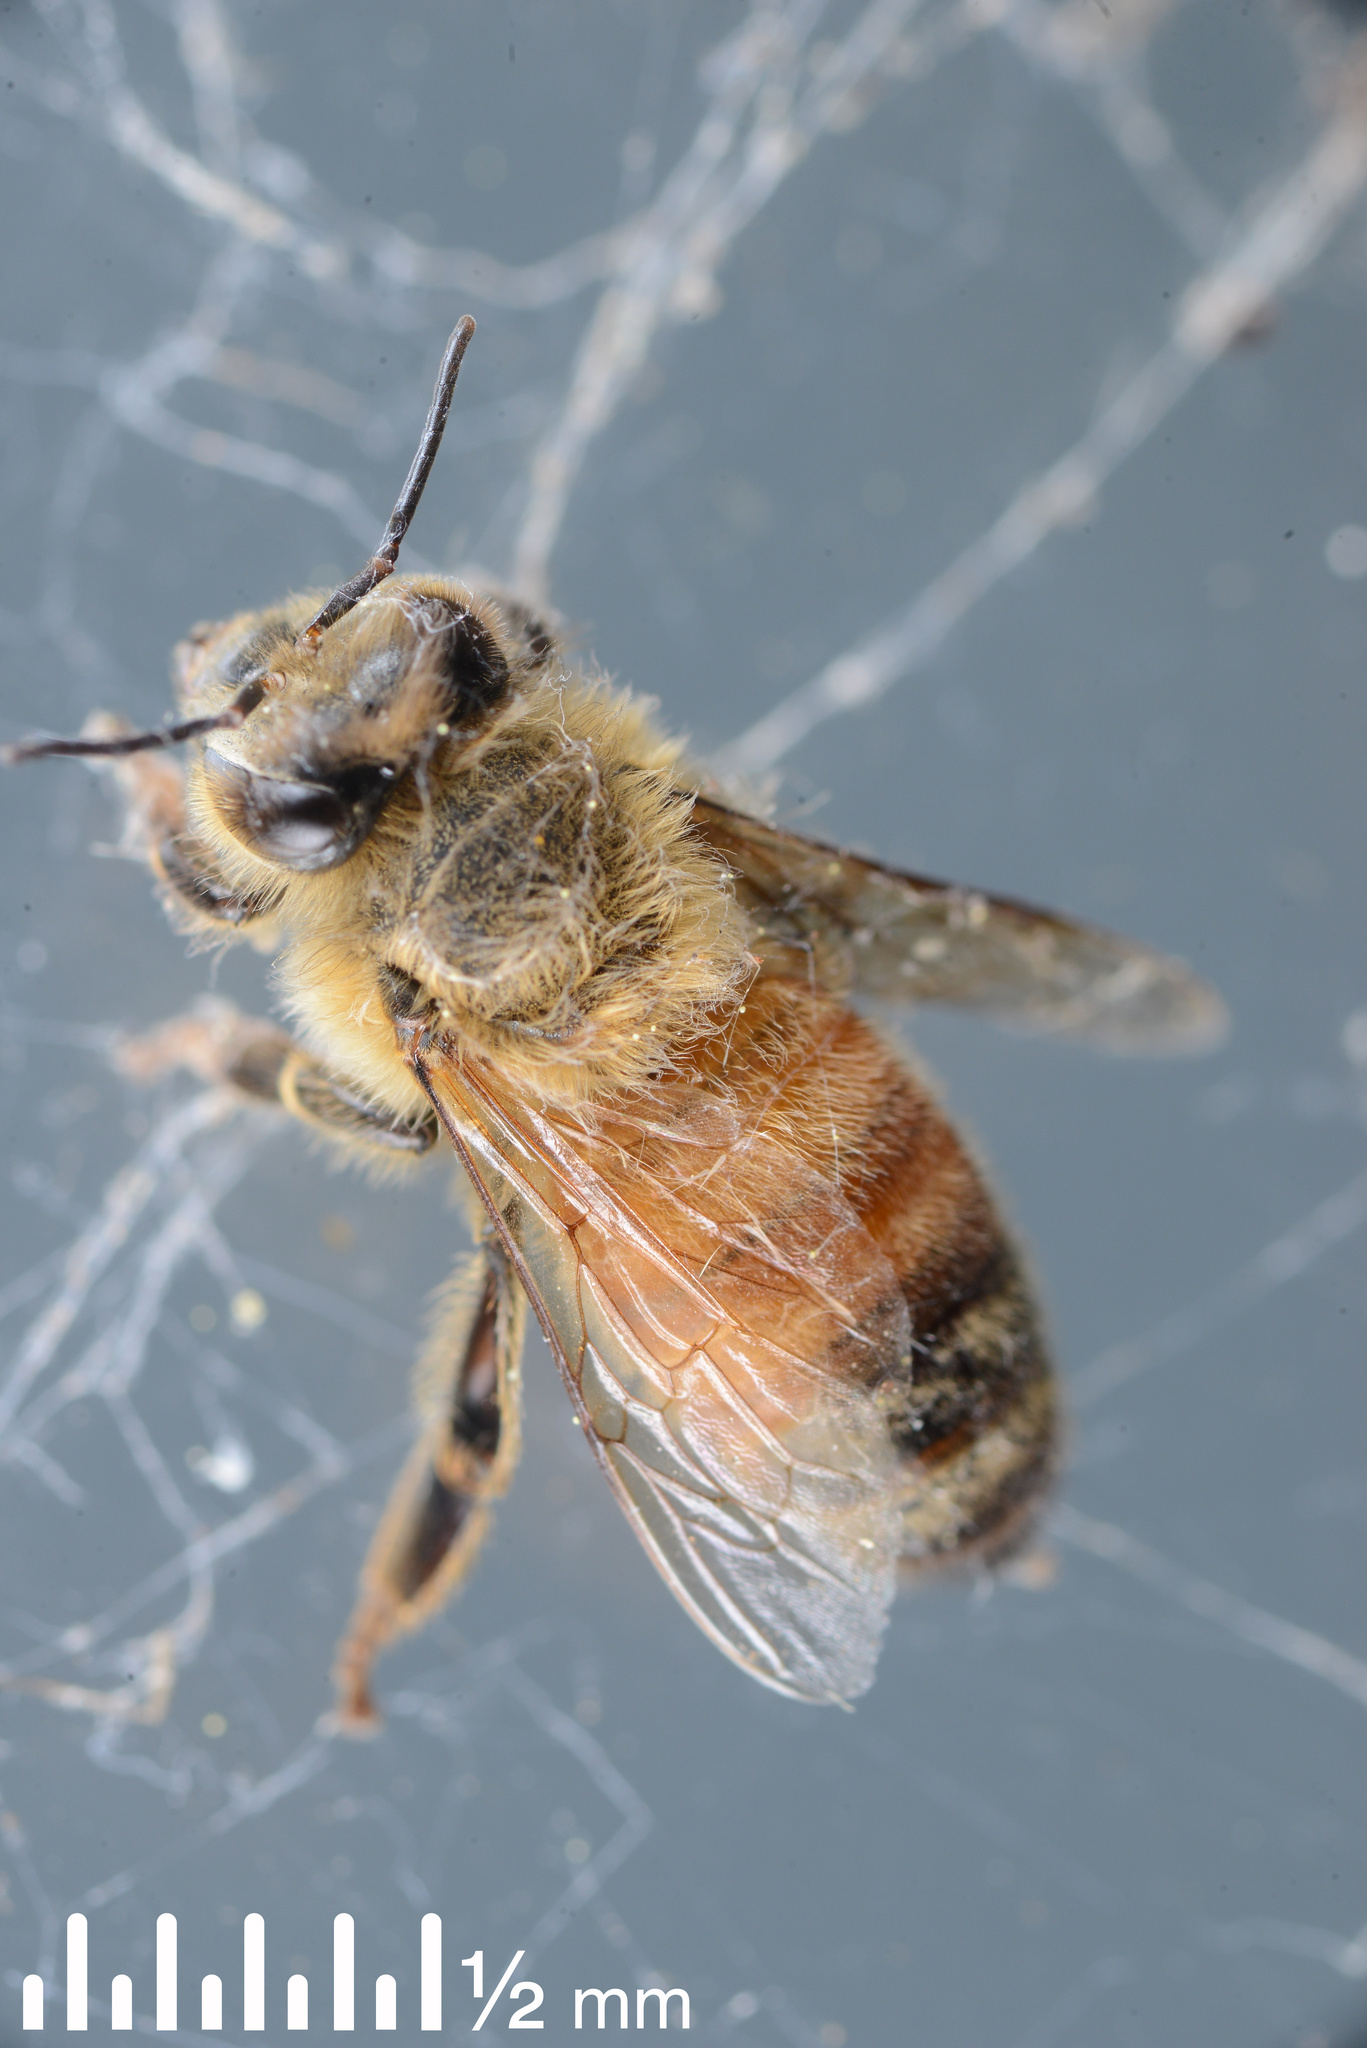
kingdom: Animalia
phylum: Arthropoda
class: Insecta
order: Hymenoptera
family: Apidae
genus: Apis
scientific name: Apis mellifera
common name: Honey bee
